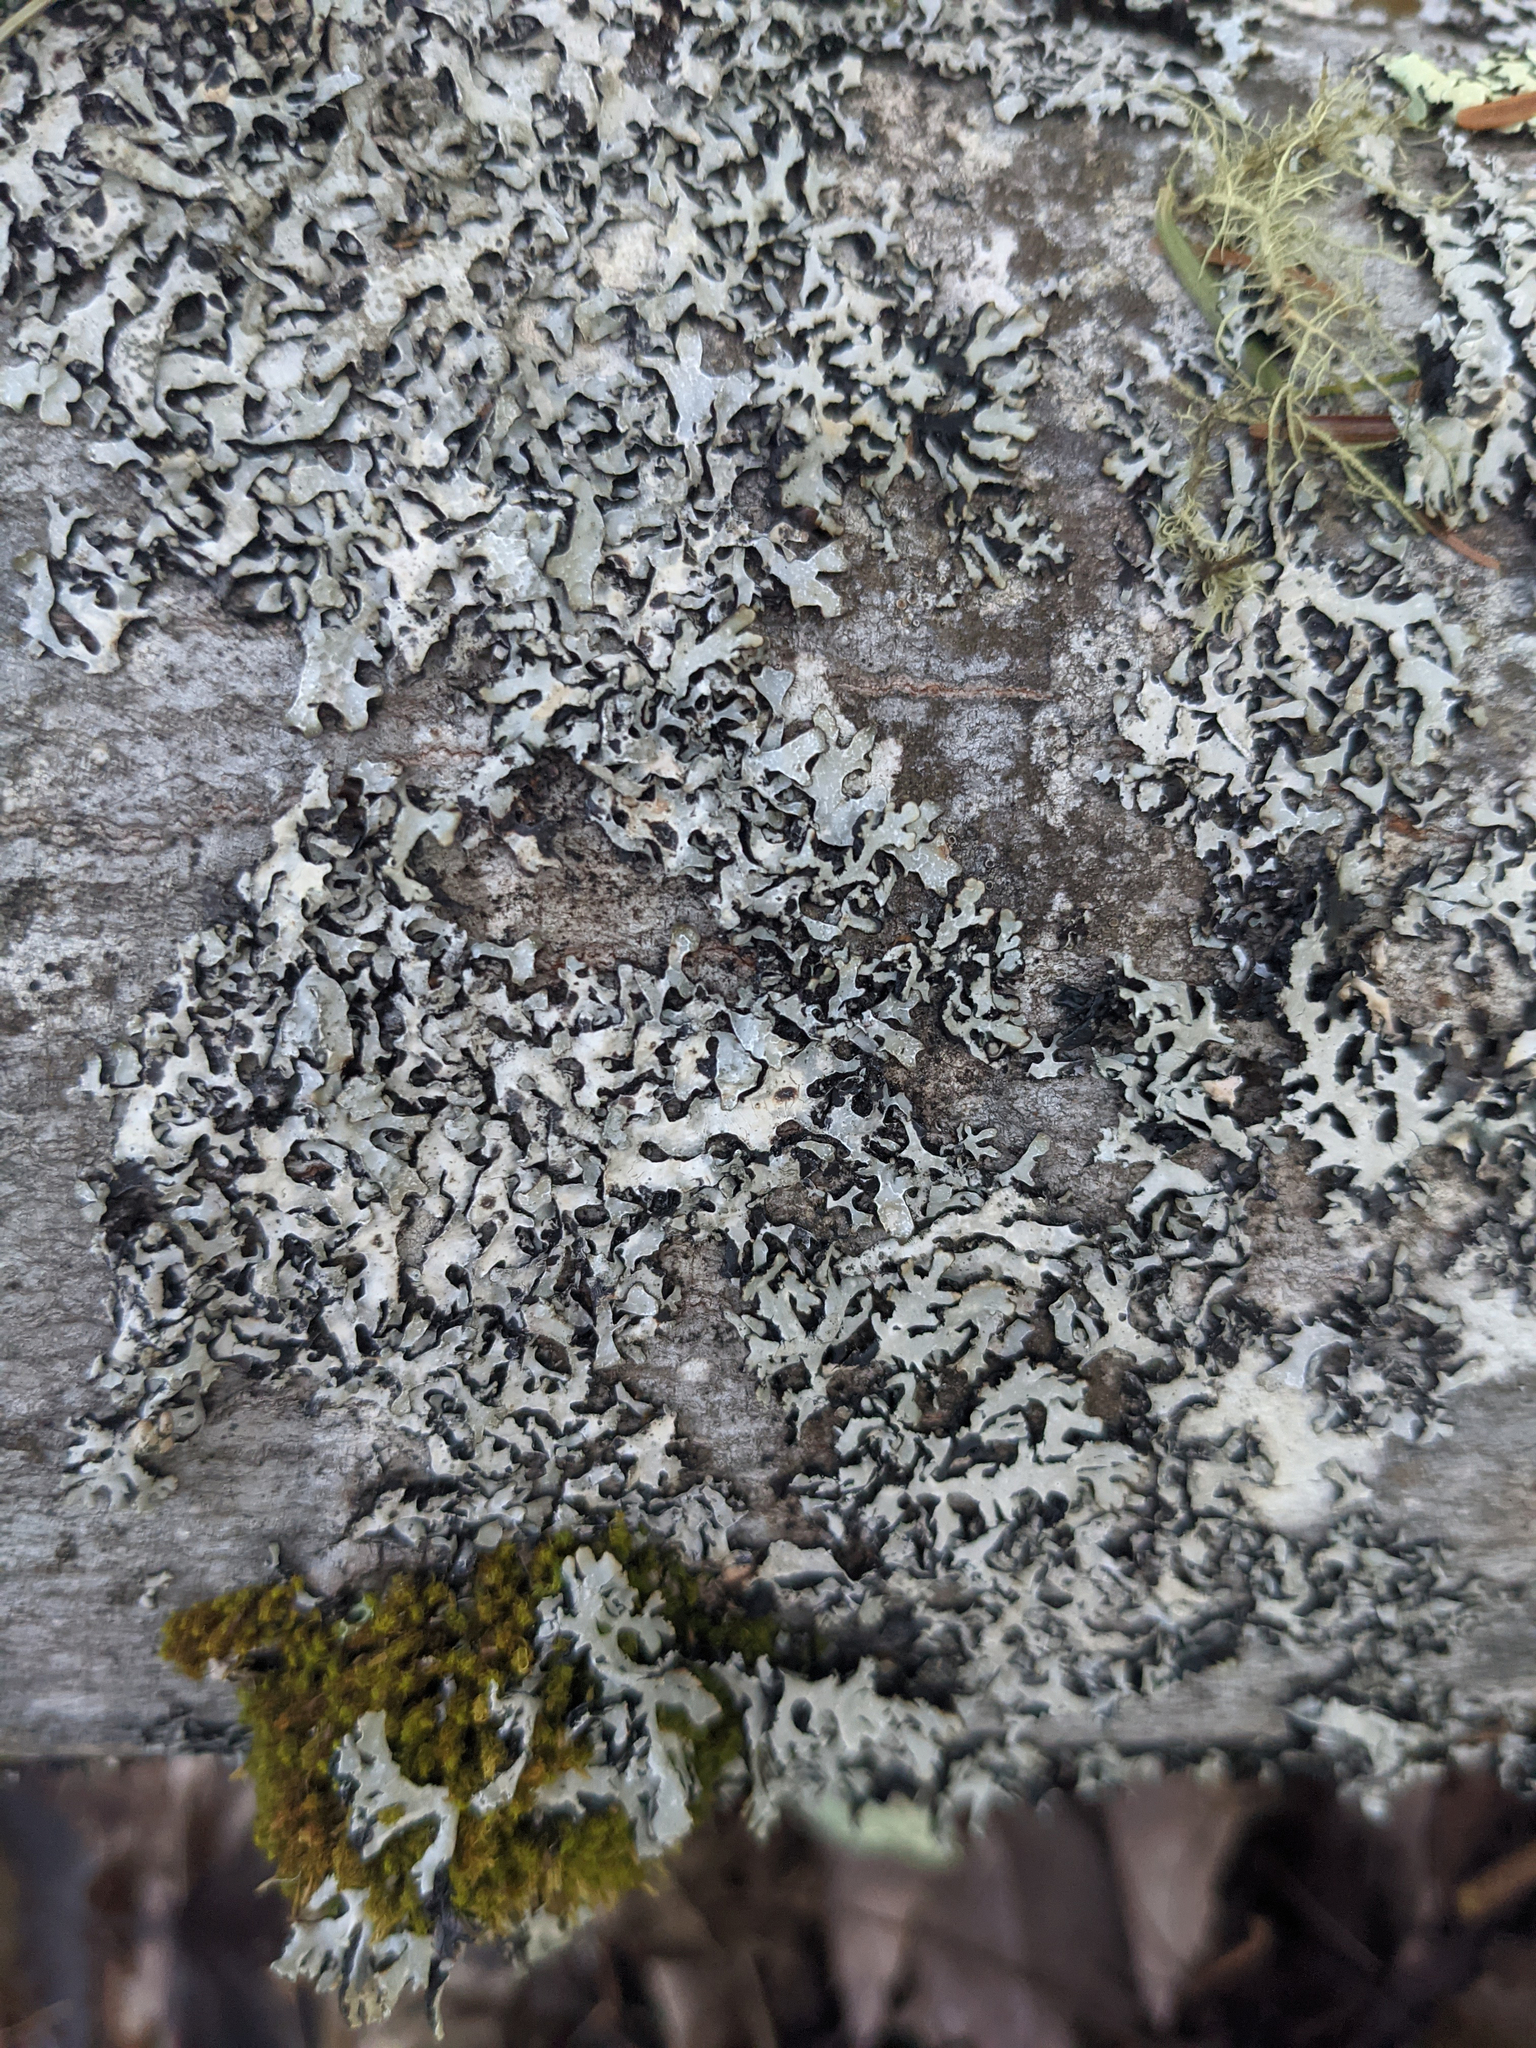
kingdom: Fungi
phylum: Ascomycota
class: Lecanoromycetes
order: Lecanorales
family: Parmeliaceae
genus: Parmelia
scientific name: Parmelia sulcata
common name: Netted shield lichen
